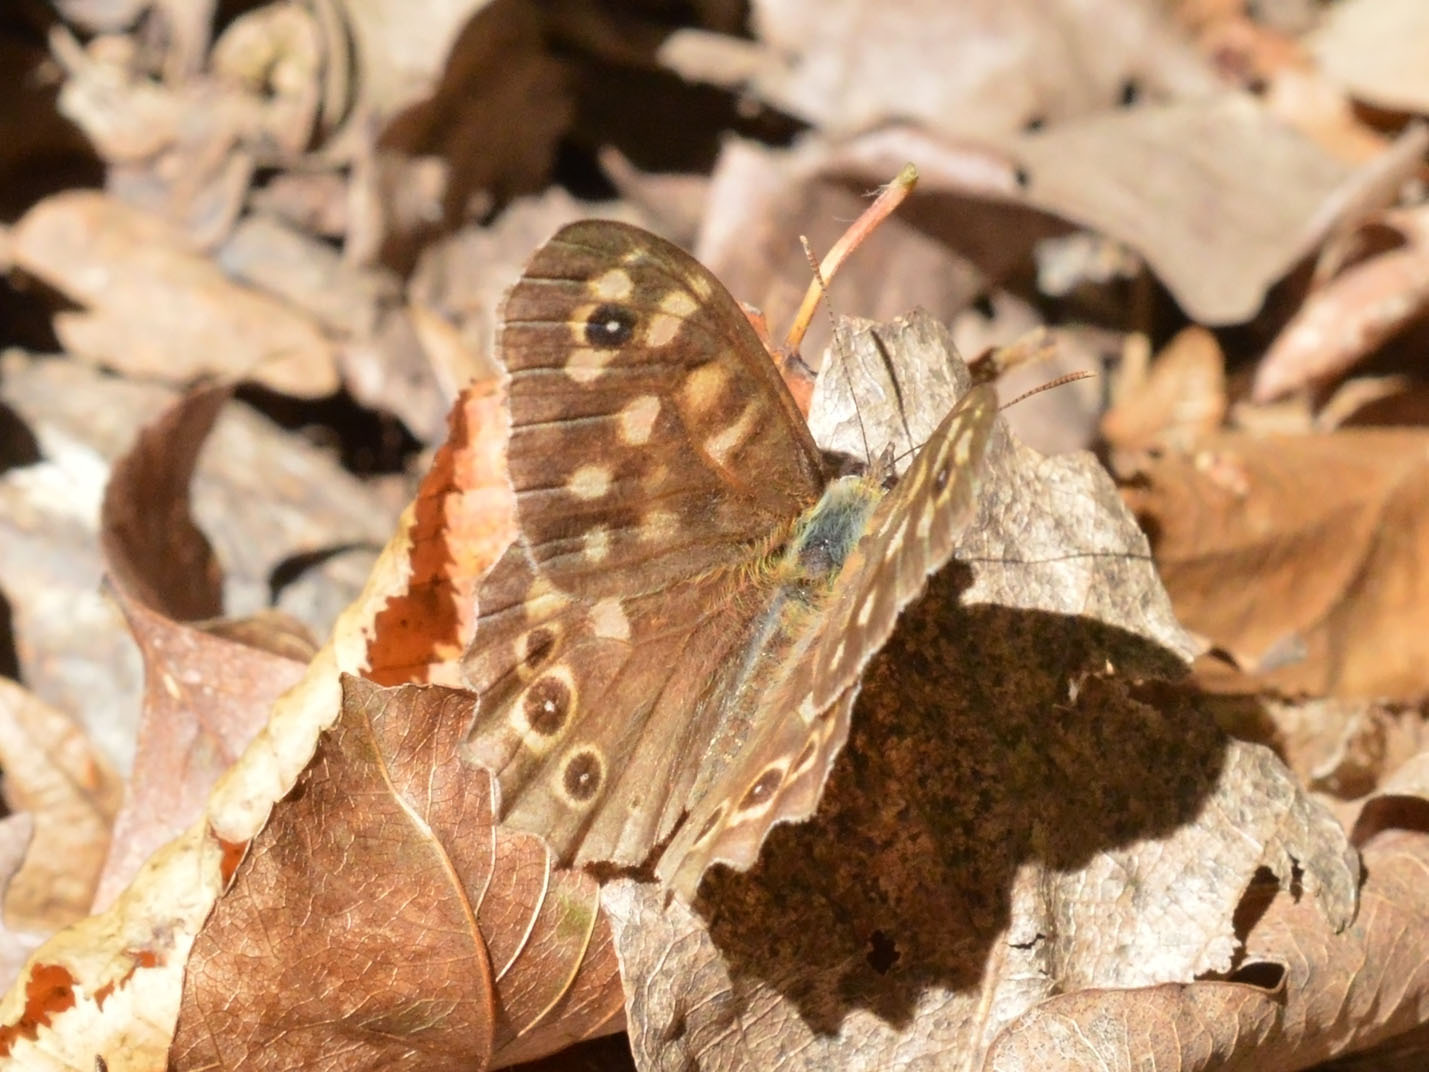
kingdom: Animalia
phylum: Arthropoda
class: Insecta
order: Lepidoptera
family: Nymphalidae
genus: Pararge
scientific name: Pararge aegeria
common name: Speckled wood
